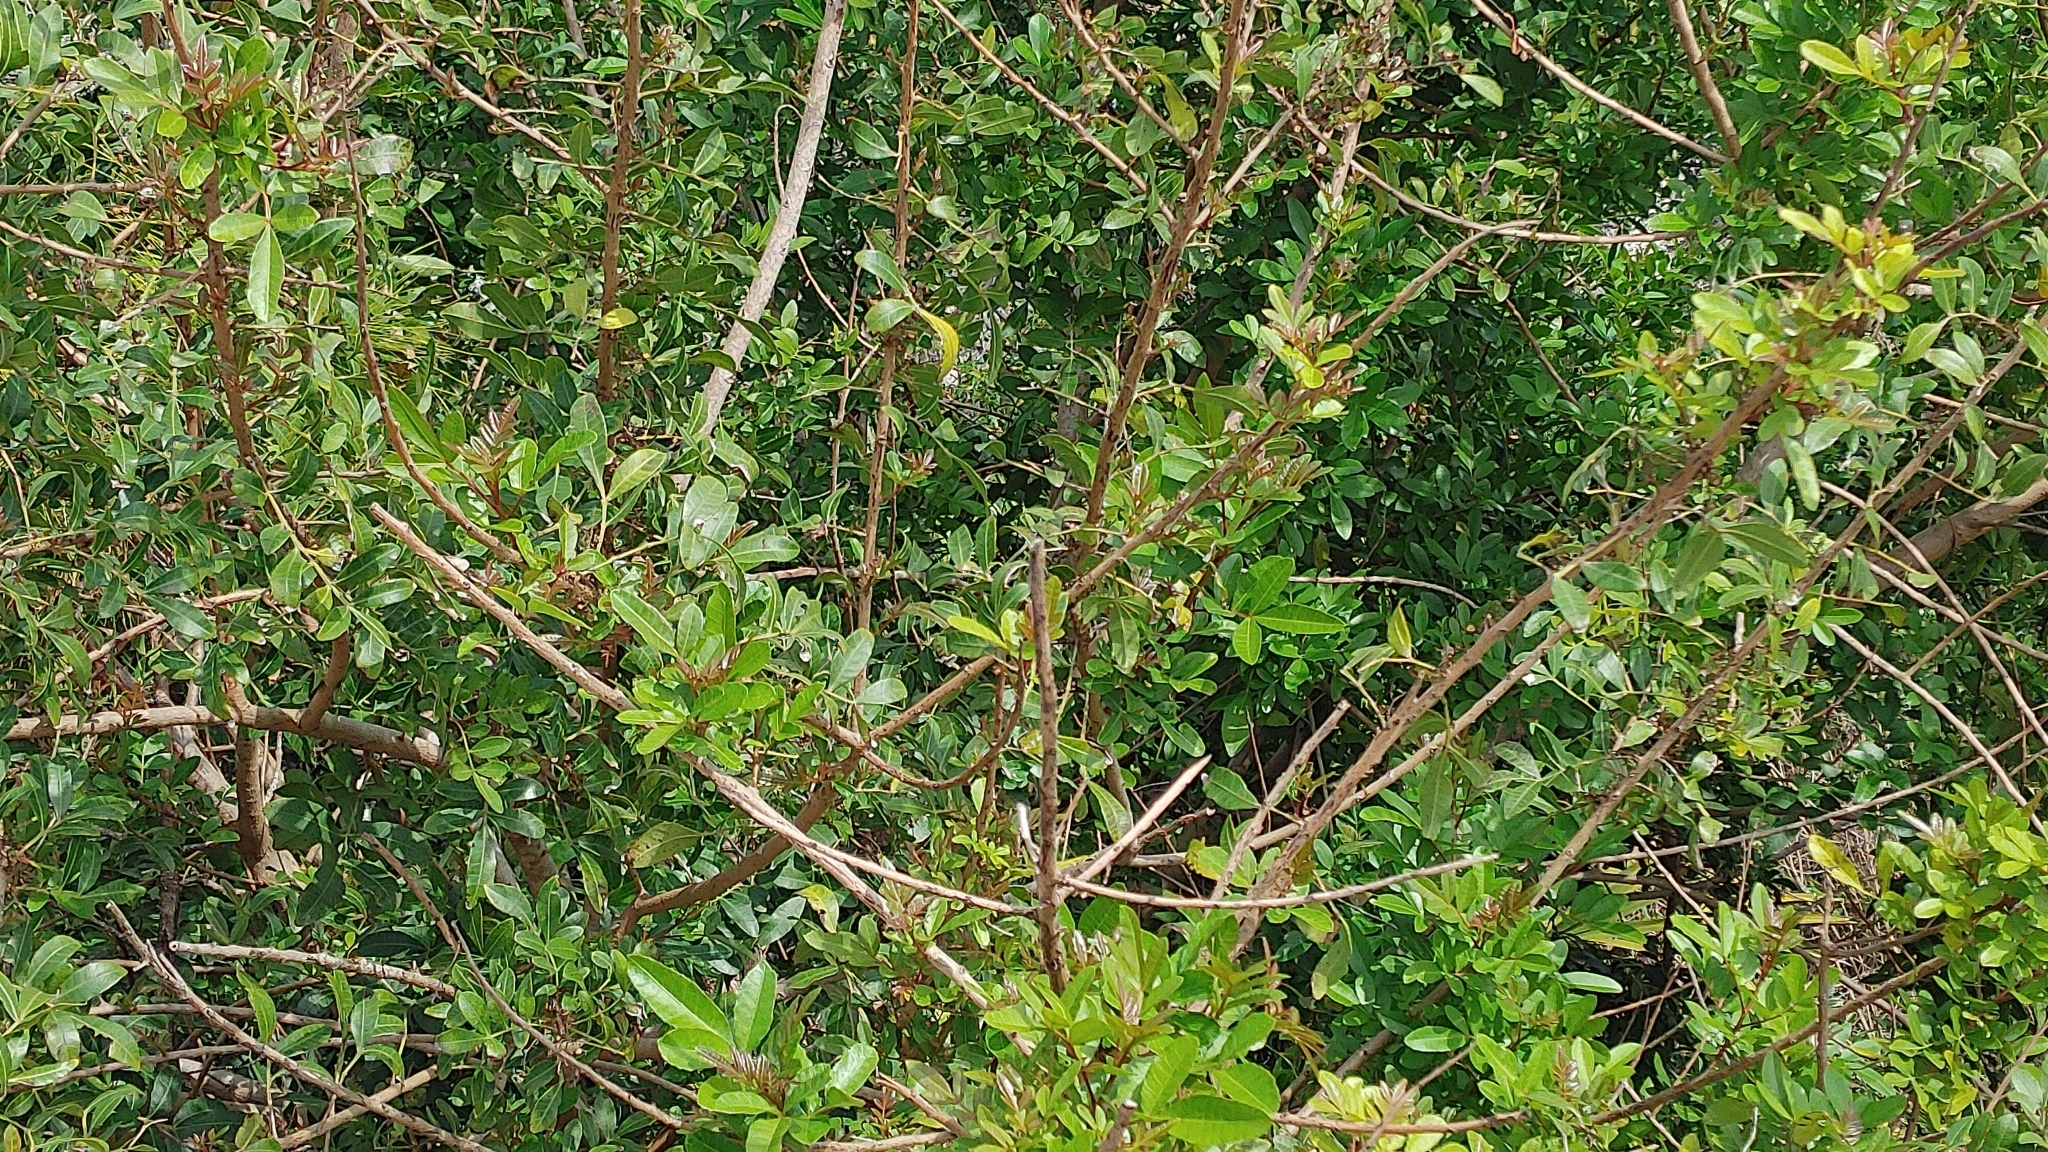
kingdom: Plantae
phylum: Tracheophyta
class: Magnoliopsida
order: Sapindales
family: Anacardiaceae
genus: Schinus
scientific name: Schinus terebinthifolia
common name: Brazilian peppertree
